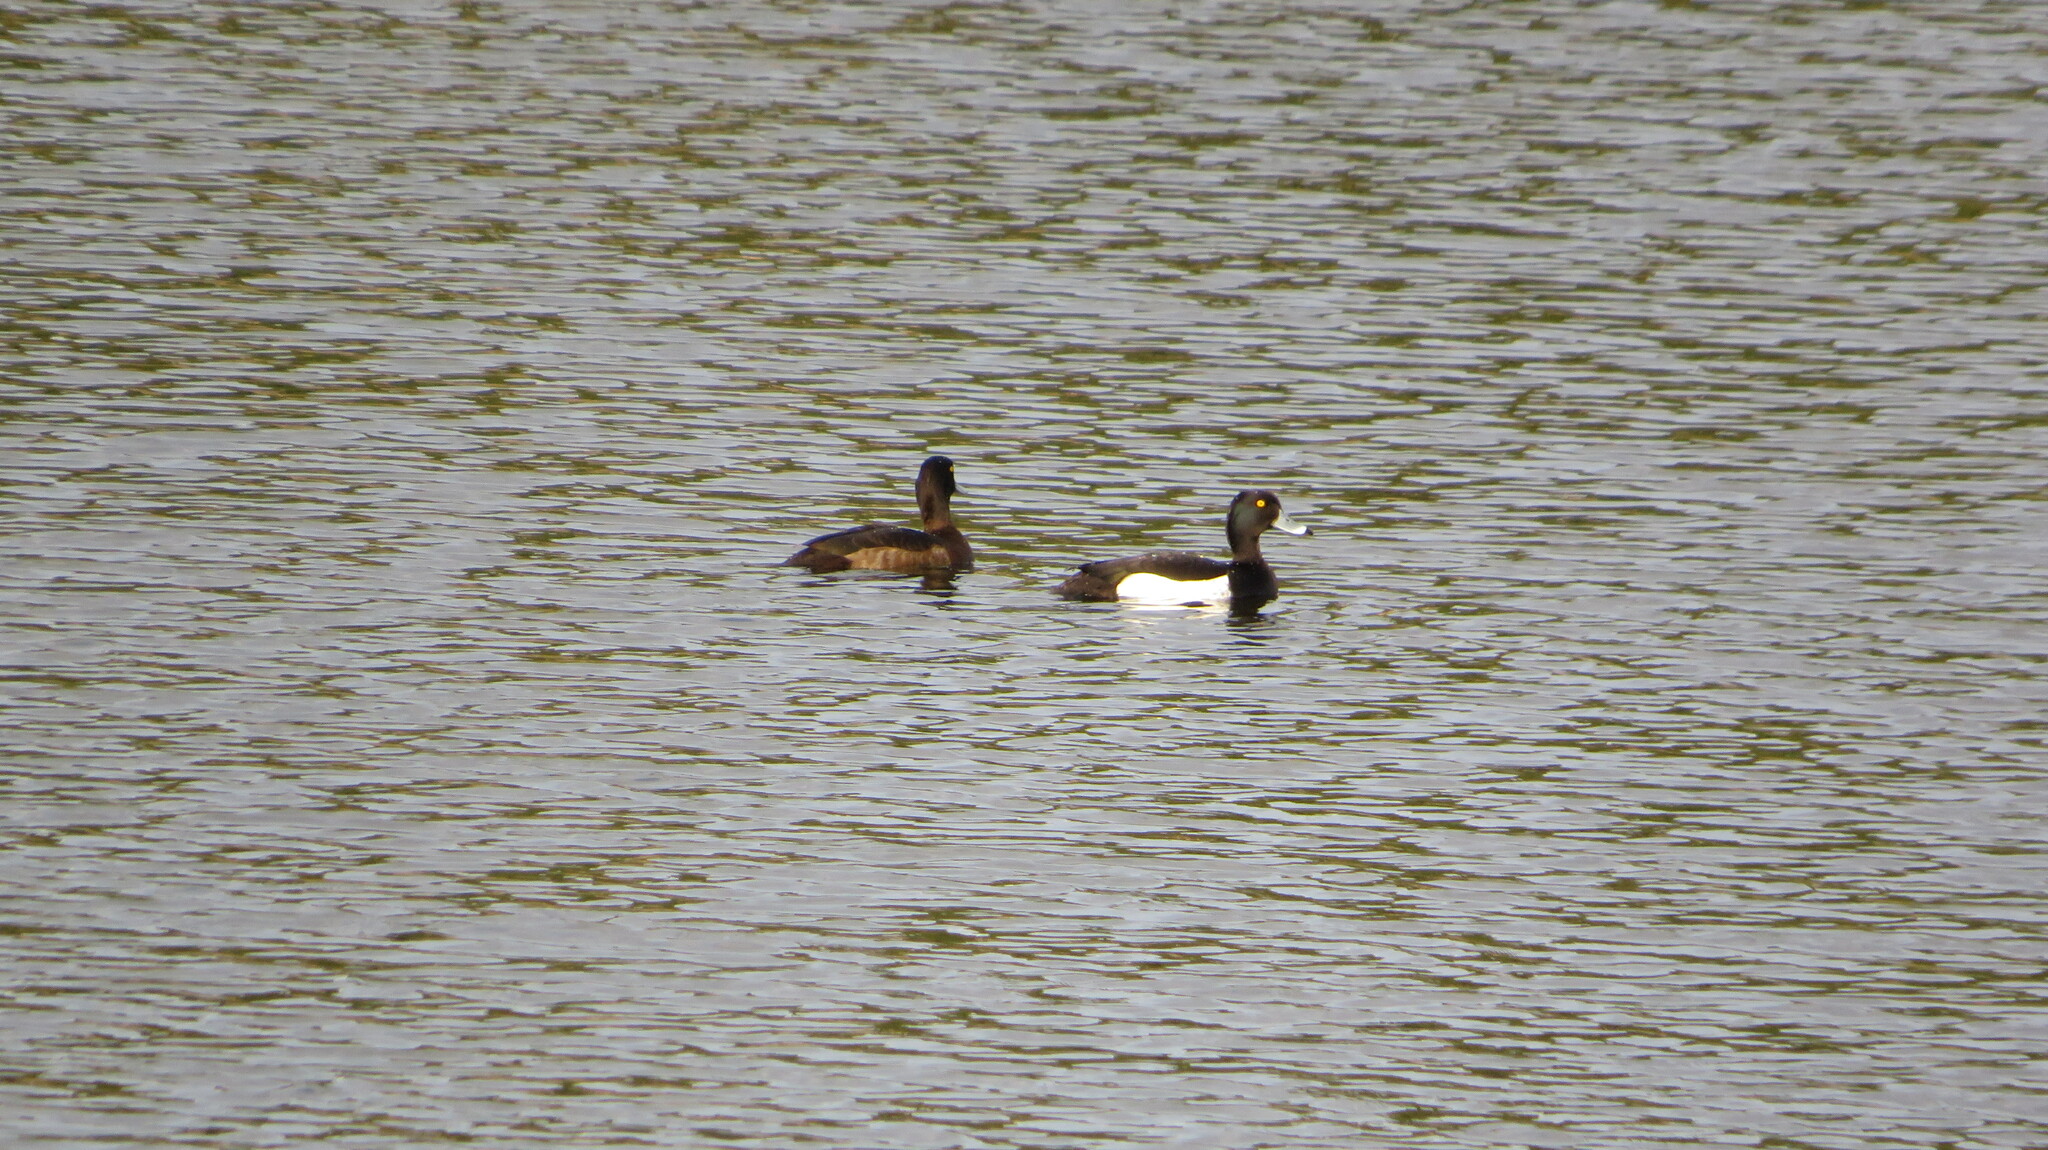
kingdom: Animalia
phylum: Chordata
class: Aves
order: Anseriformes
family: Anatidae
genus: Aythya
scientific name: Aythya fuligula
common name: Tufted duck
